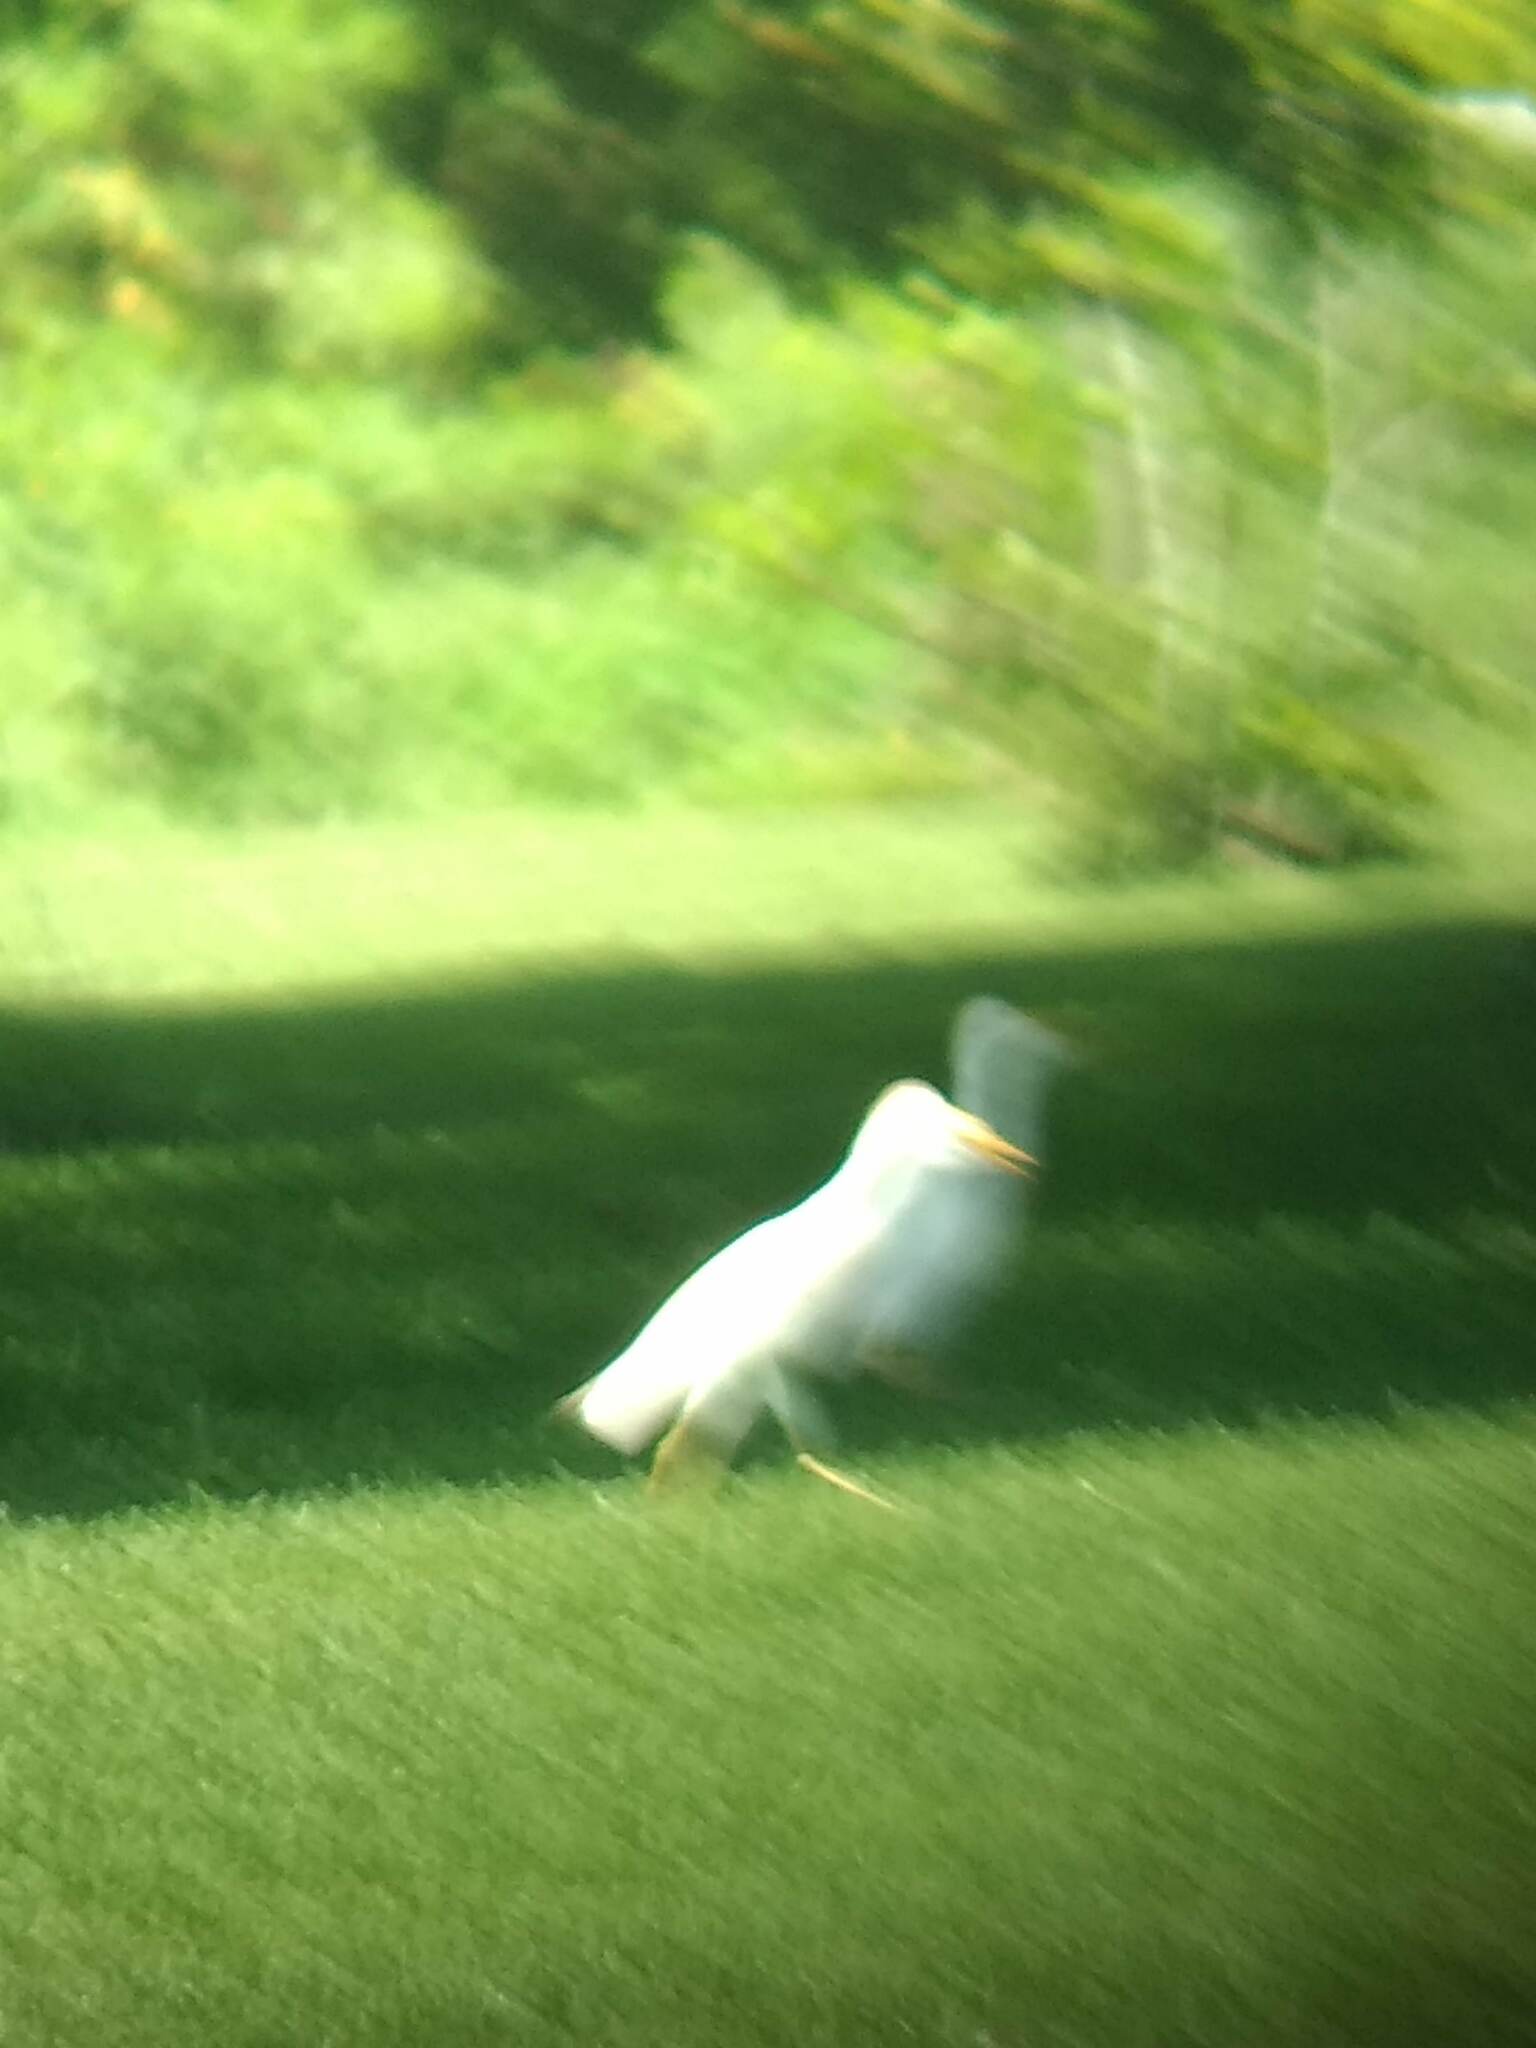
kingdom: Animalia
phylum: Chordata
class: Aves
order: Pelecaniformes
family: Ardeidae
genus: Bubulcus
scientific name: Bubulcus ibis
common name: Cattle egret
